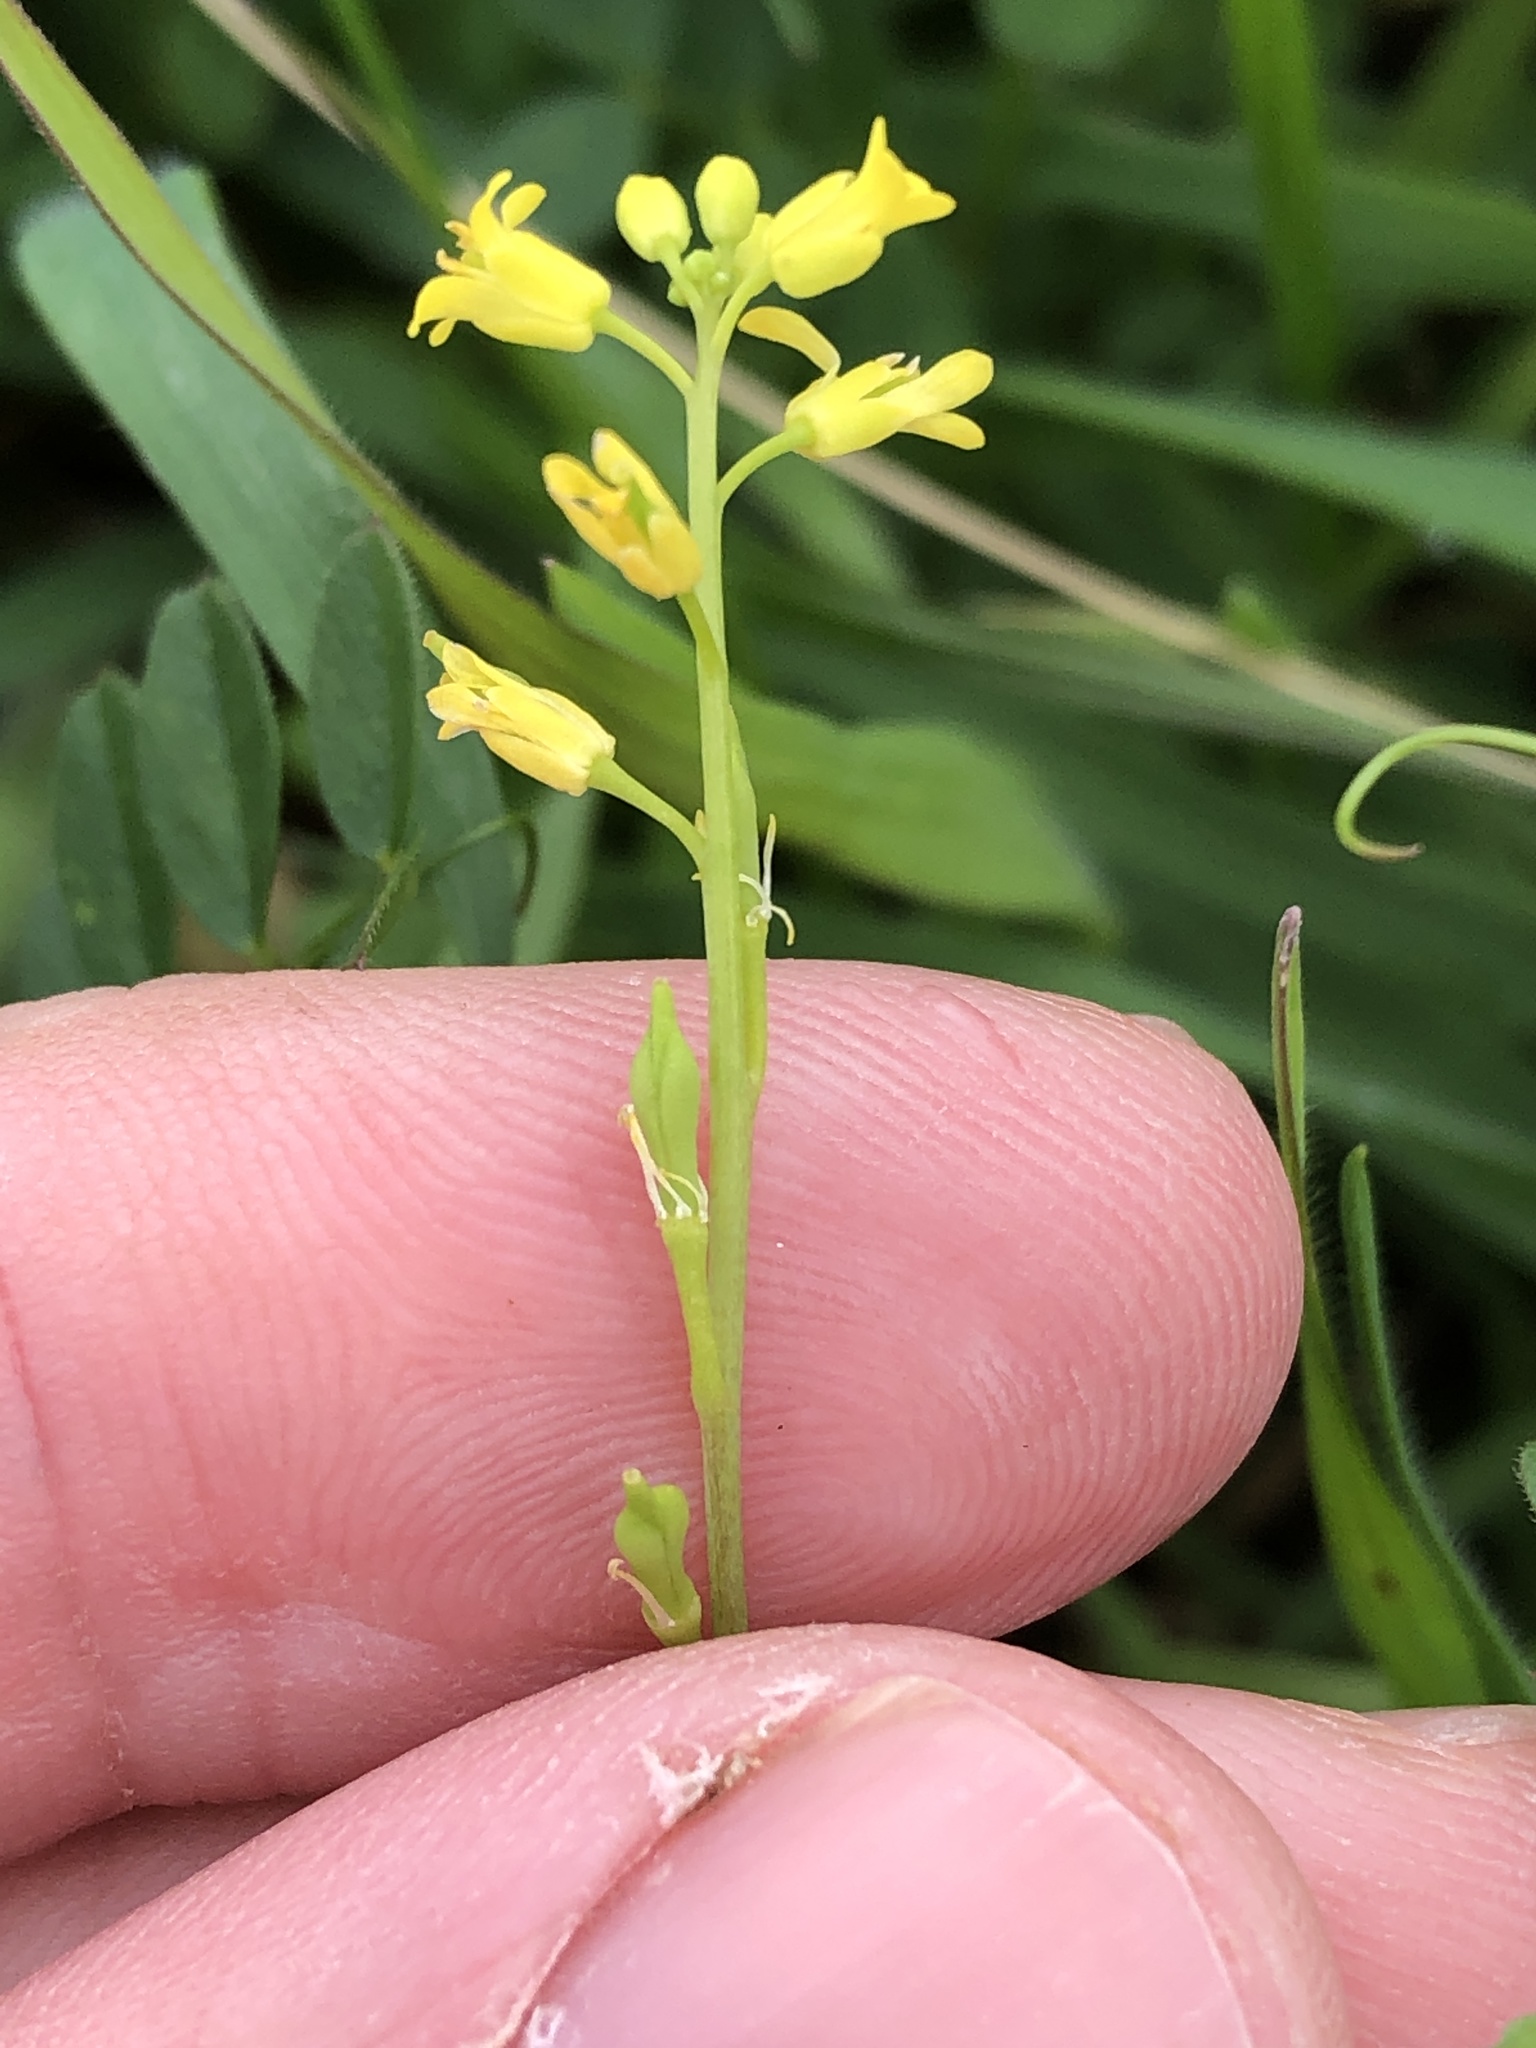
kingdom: Plantae
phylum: Tracheophyta
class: Magnoliopsida
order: Brassicales
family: Brassicaceae
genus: Myagrum
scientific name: Myagrum perfoliatum
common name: Mitre cress
